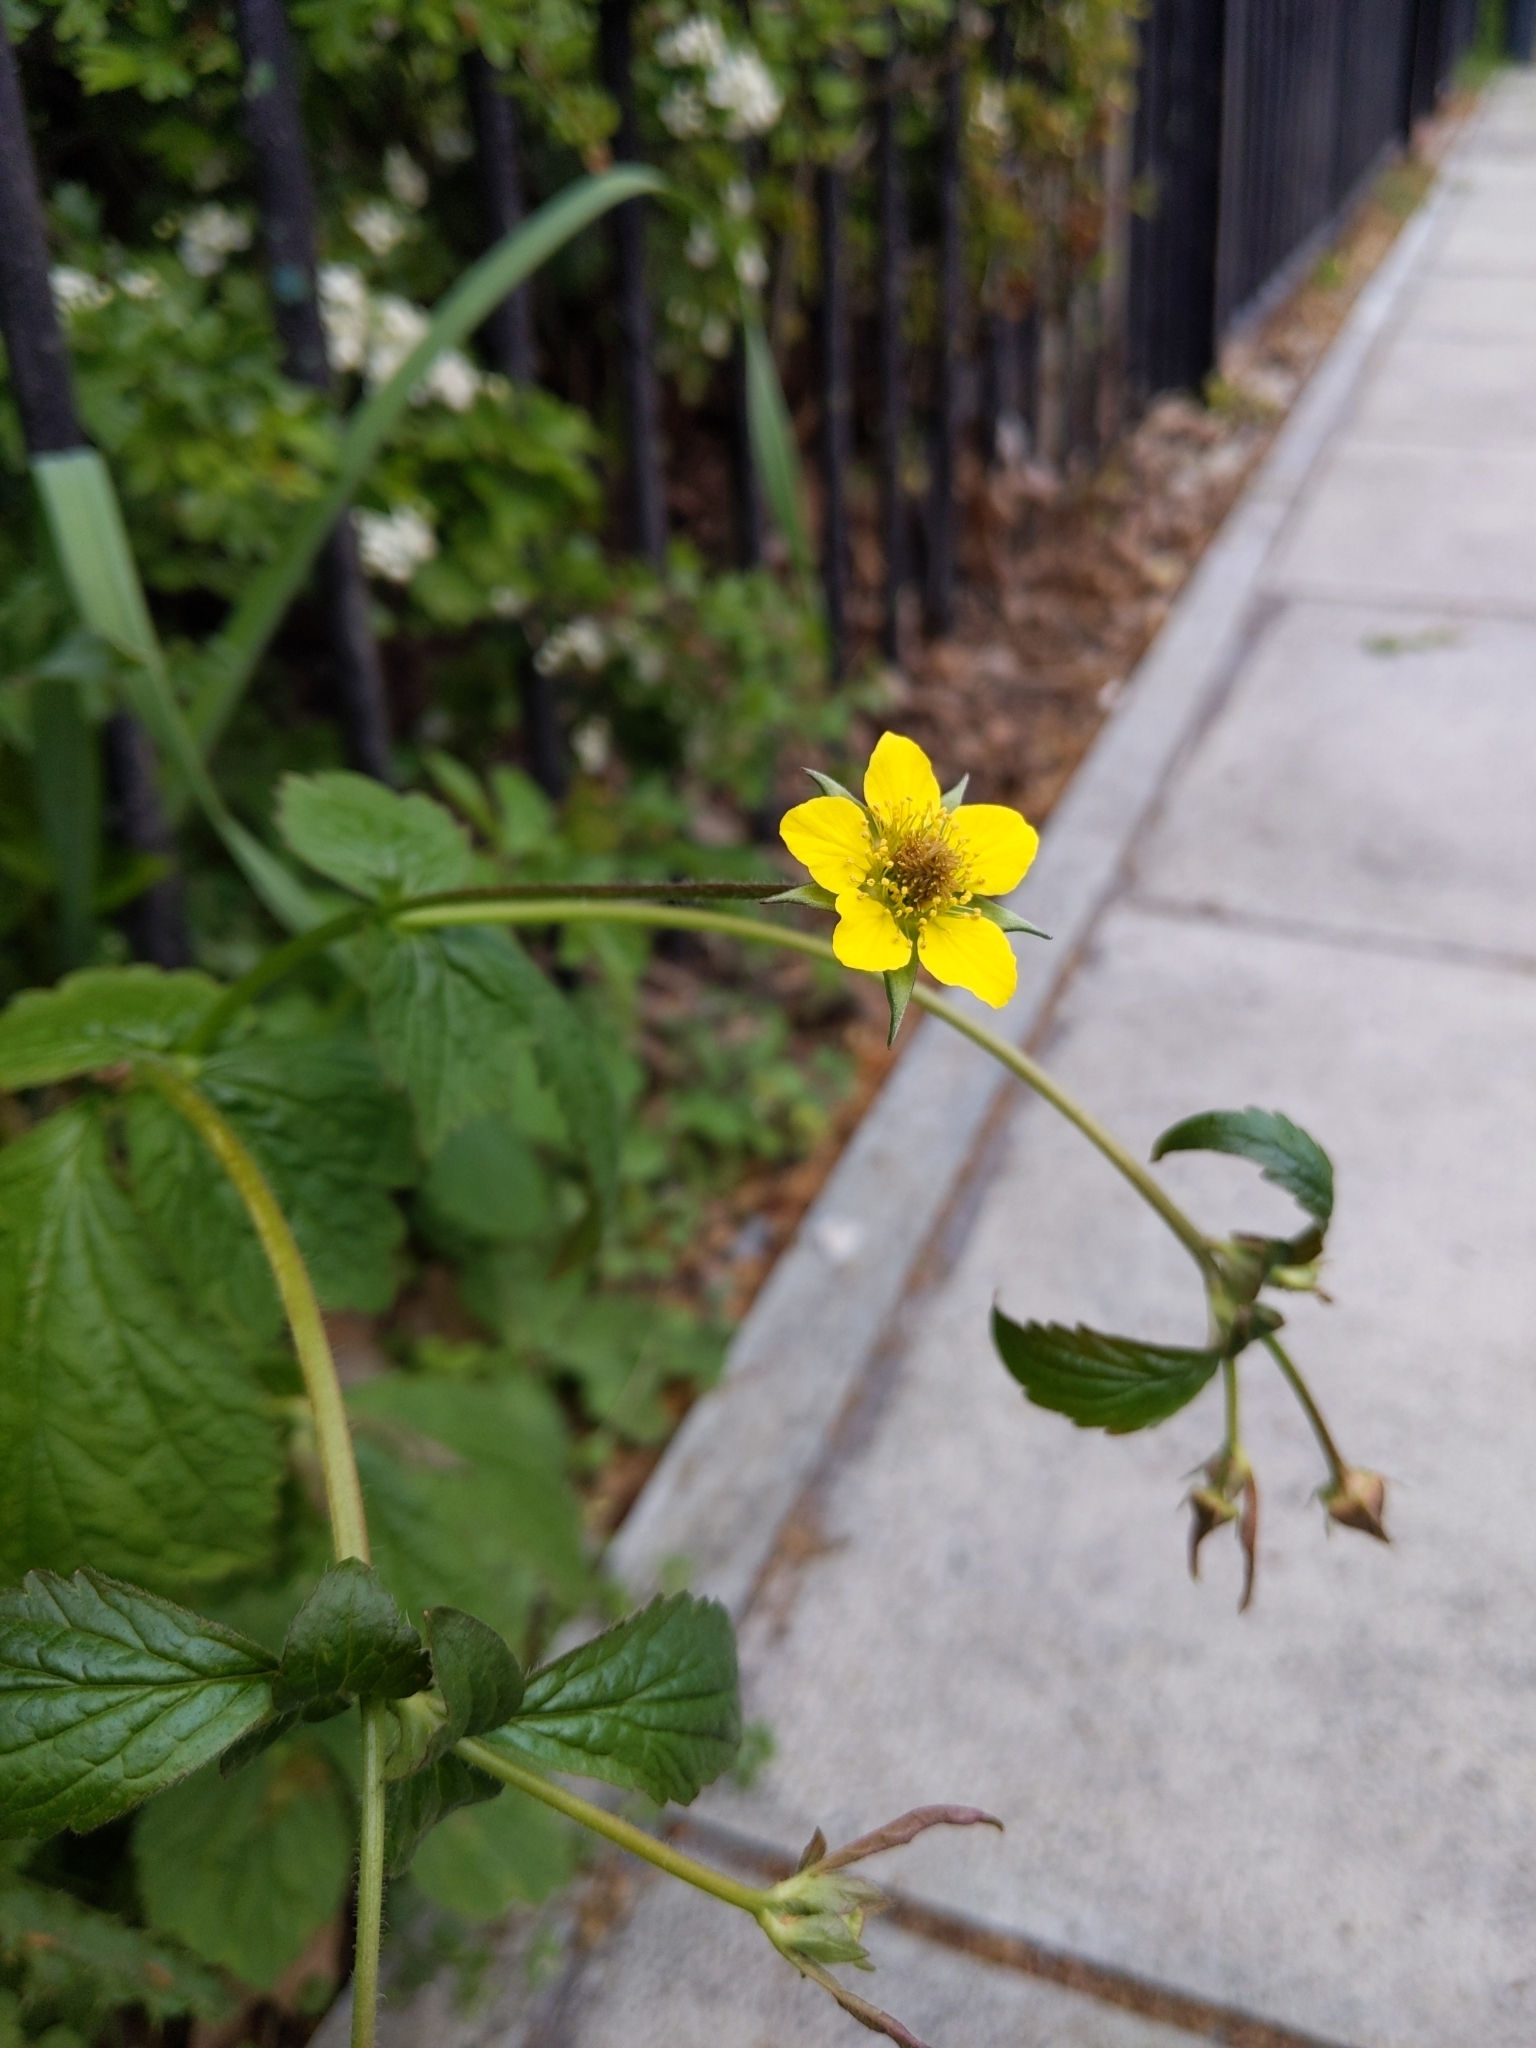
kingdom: Plantae
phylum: Tracheophyta
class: Magnoliopsida
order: Rosales
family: Rosaceae
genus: Geum
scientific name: Geum urbanum
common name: Wood avens
